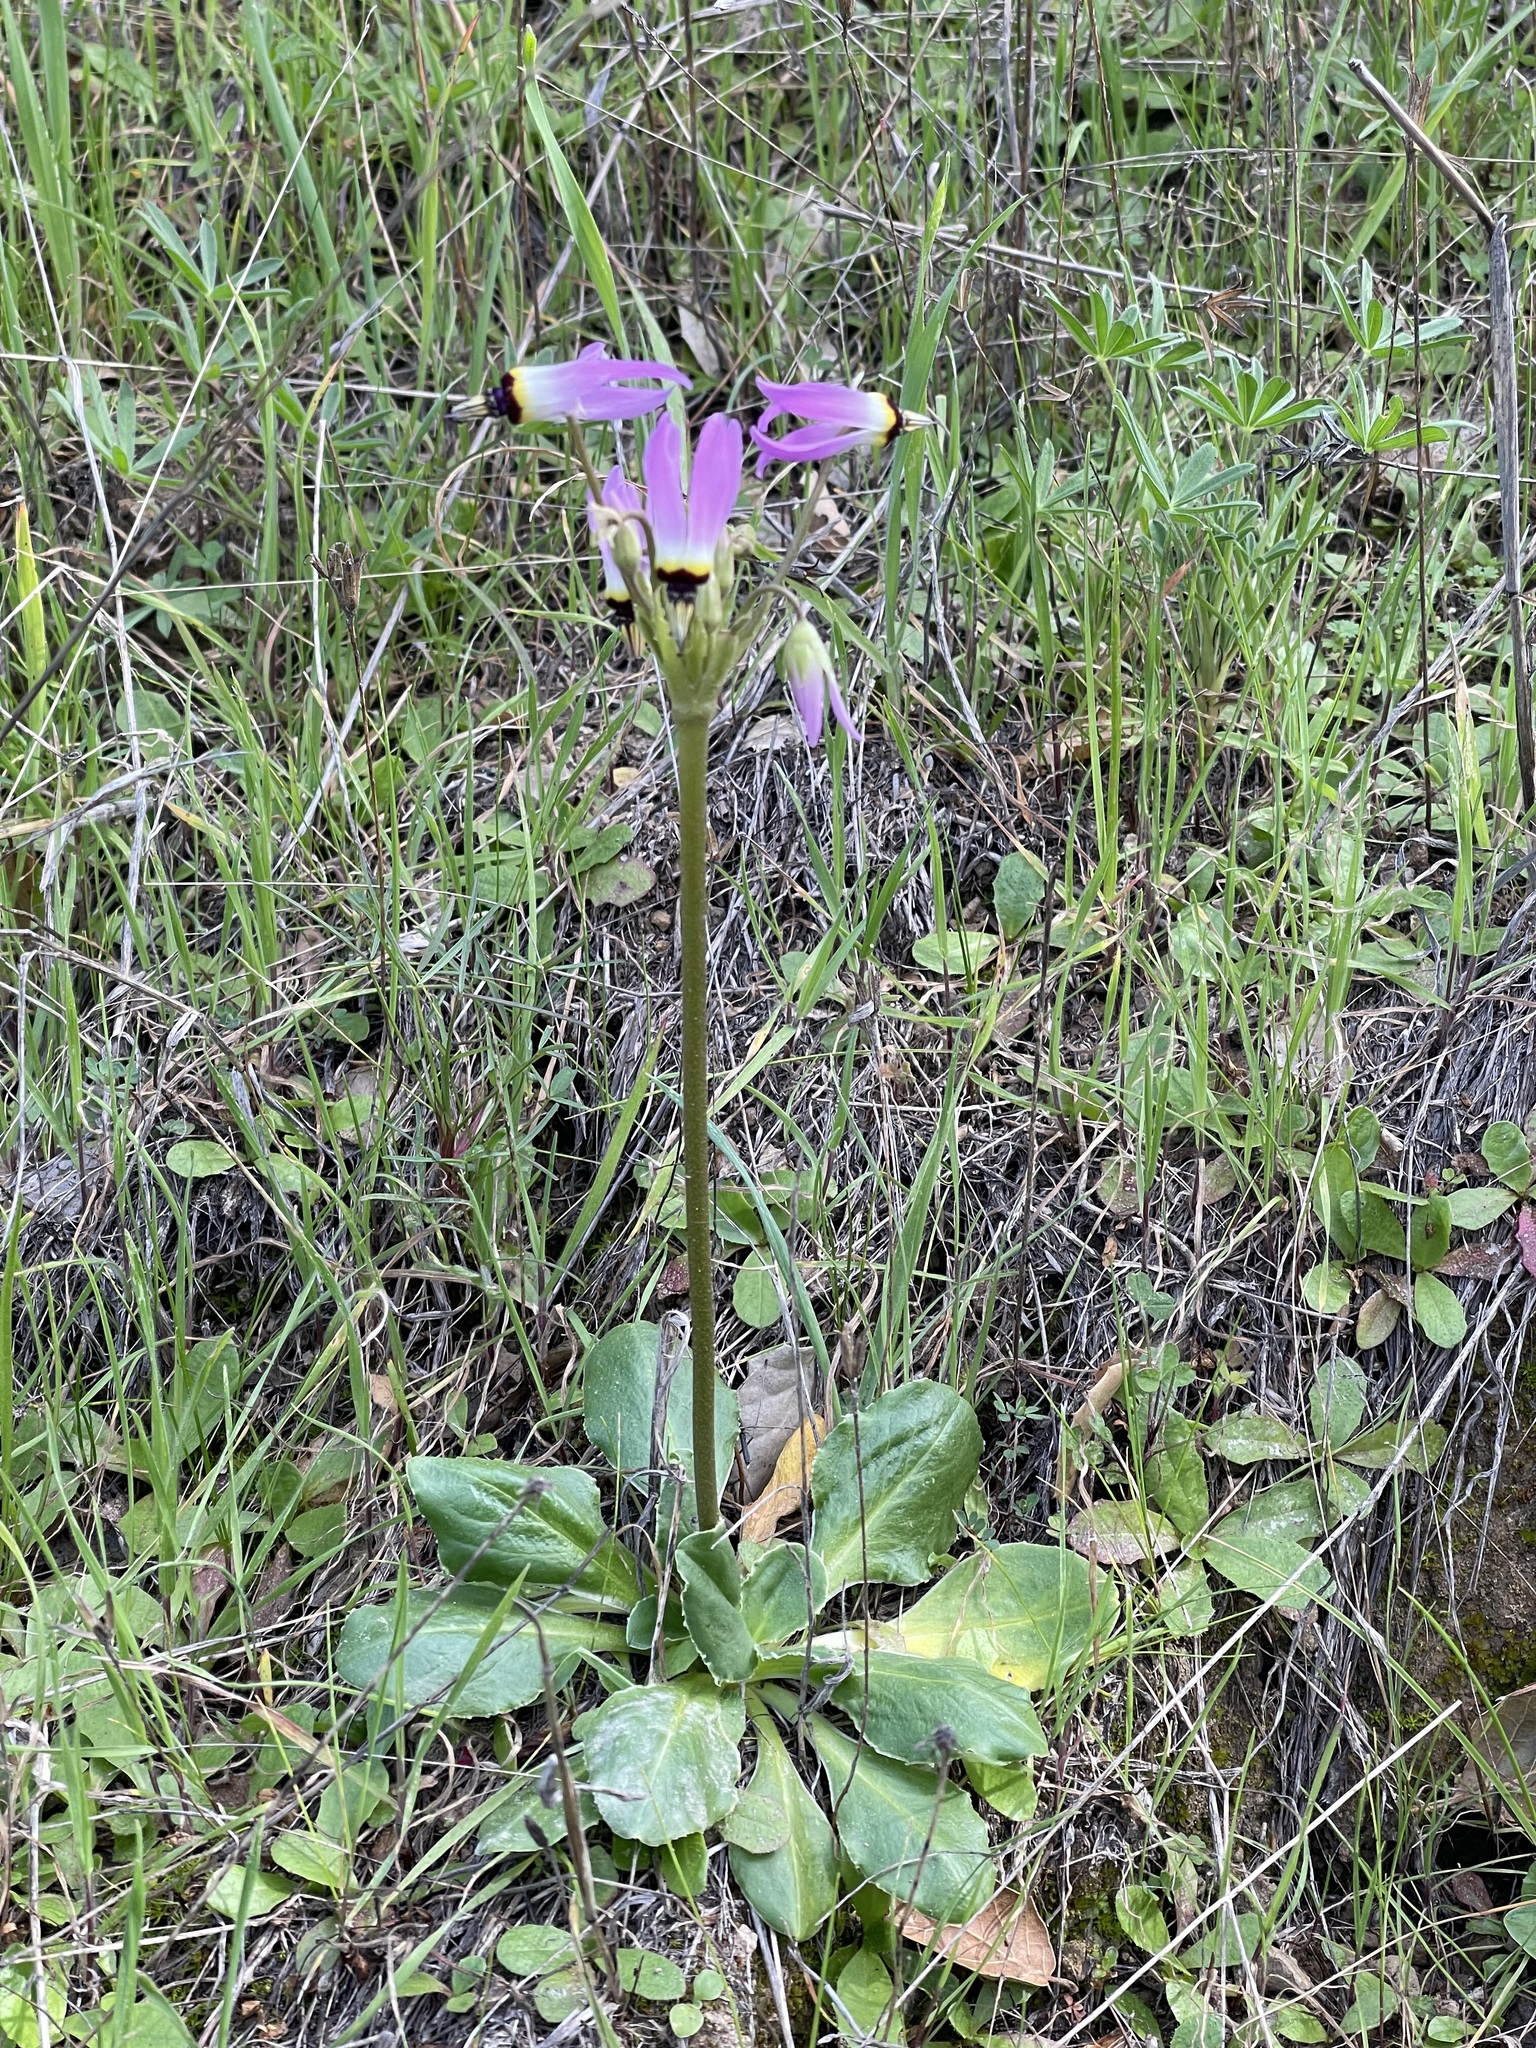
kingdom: Plantae
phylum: Tracheophyta
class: Magnoliopsida
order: Ericales
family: Primulaceae
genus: Dodecatheon
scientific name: Dodecatheon clevelandii
